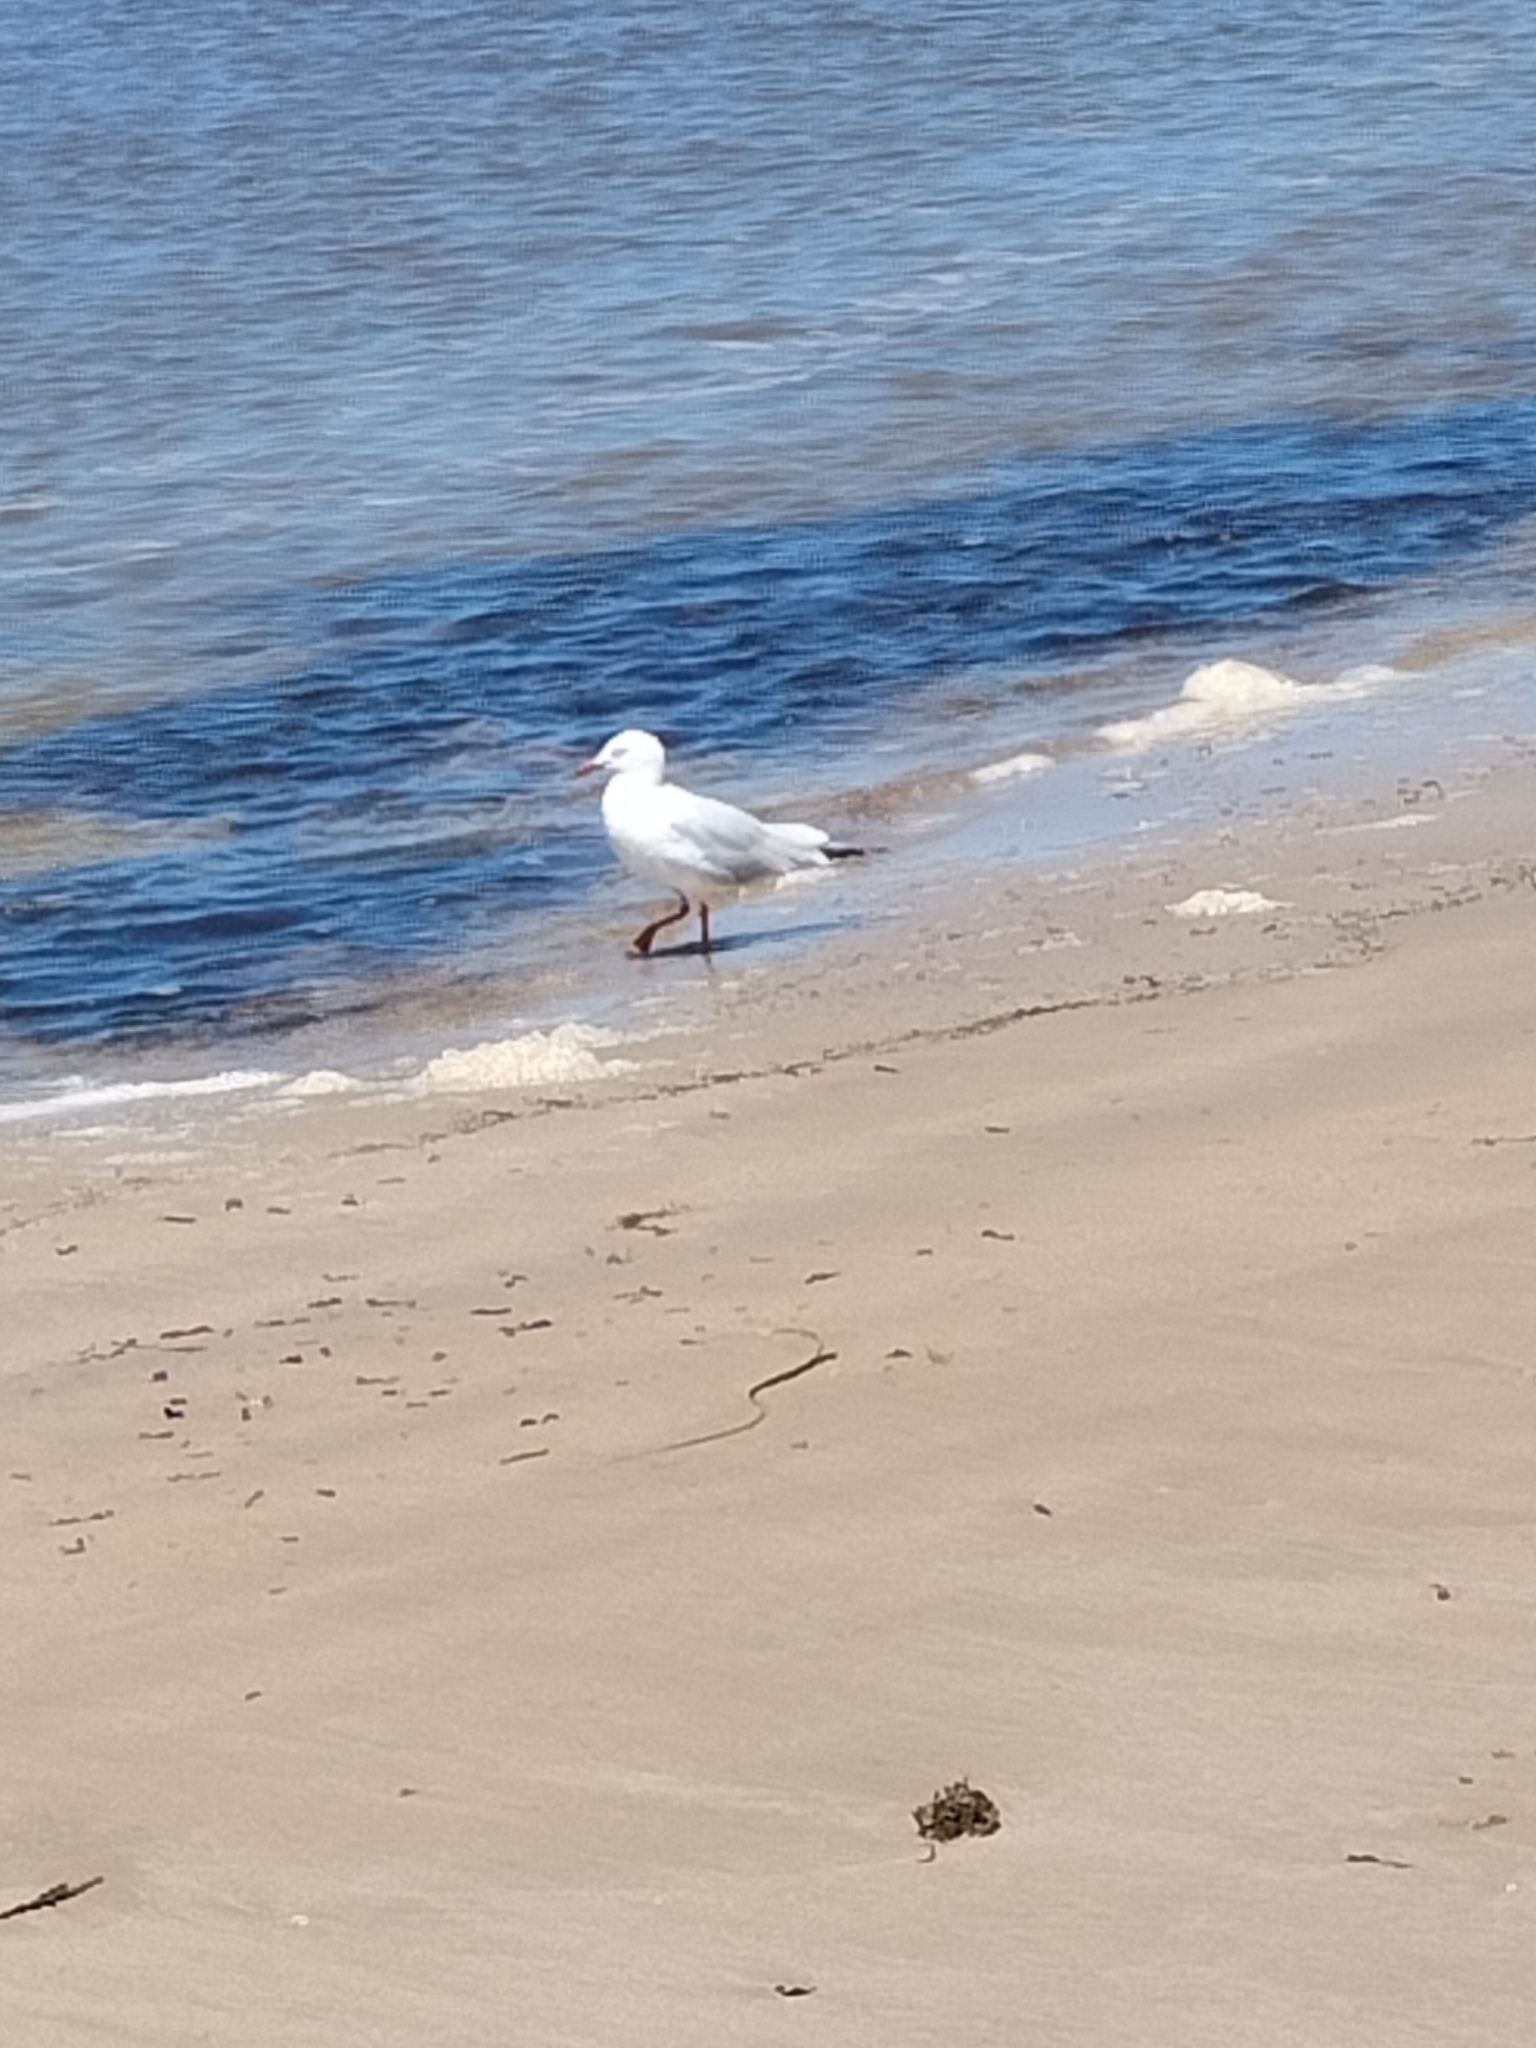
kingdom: Animalia
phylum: Chordata
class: Aves
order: Charadriiformes
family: Laridae
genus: Chroicocephalus
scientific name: Chroicocephalus novaehollandiae
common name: Silver gull
